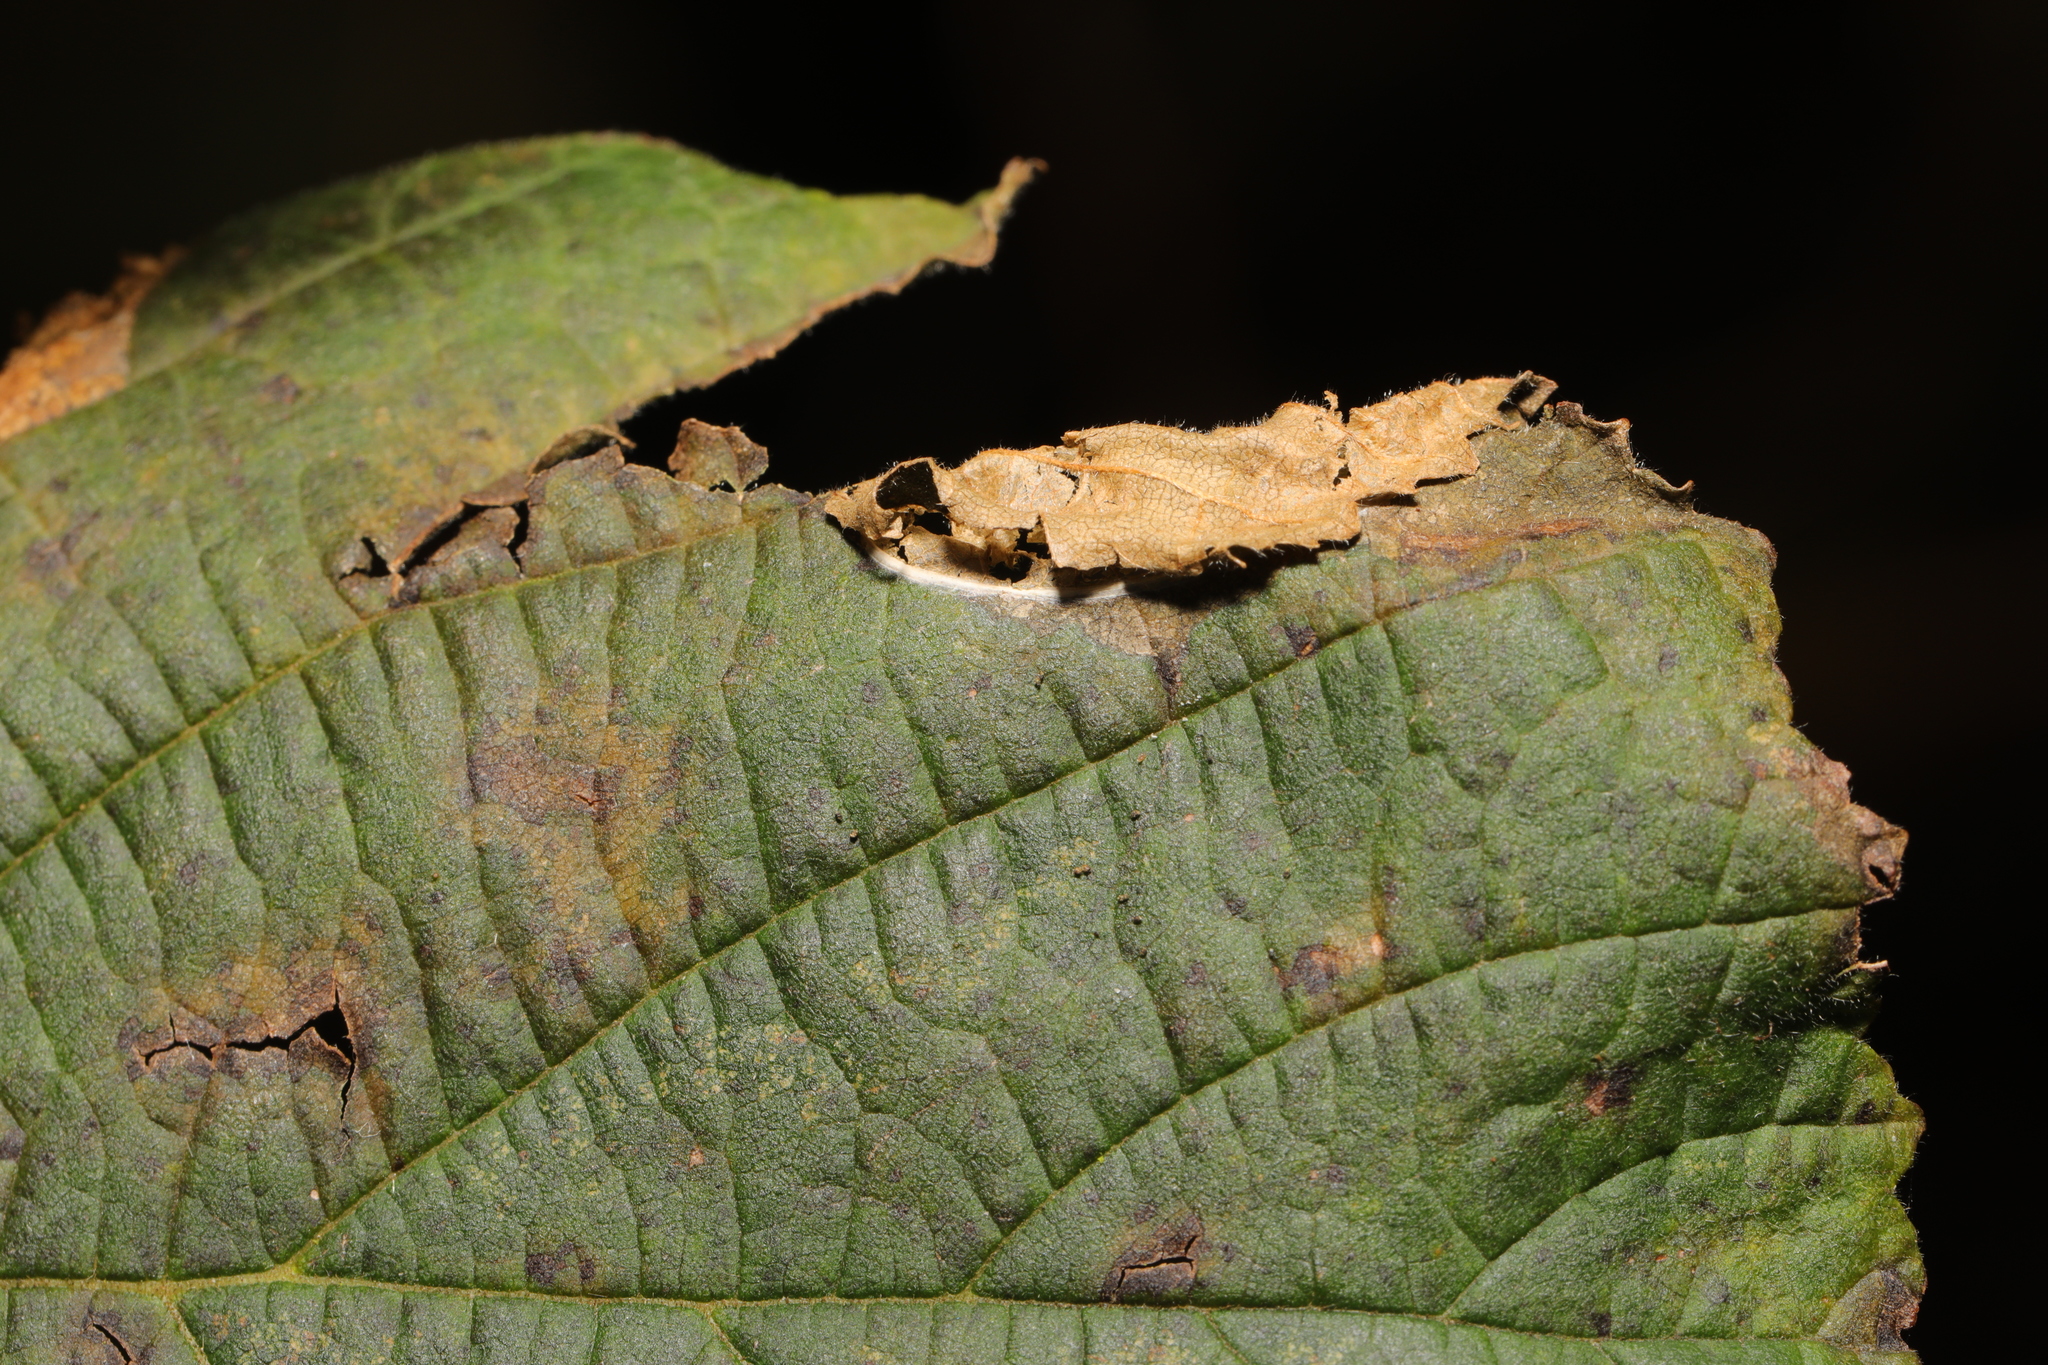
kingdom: Animalia
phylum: Arthropoda
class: Insecta
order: Lepidoptera
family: Gracillariidae
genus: Parornix
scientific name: Parornix devoniella
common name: Hazel slender
